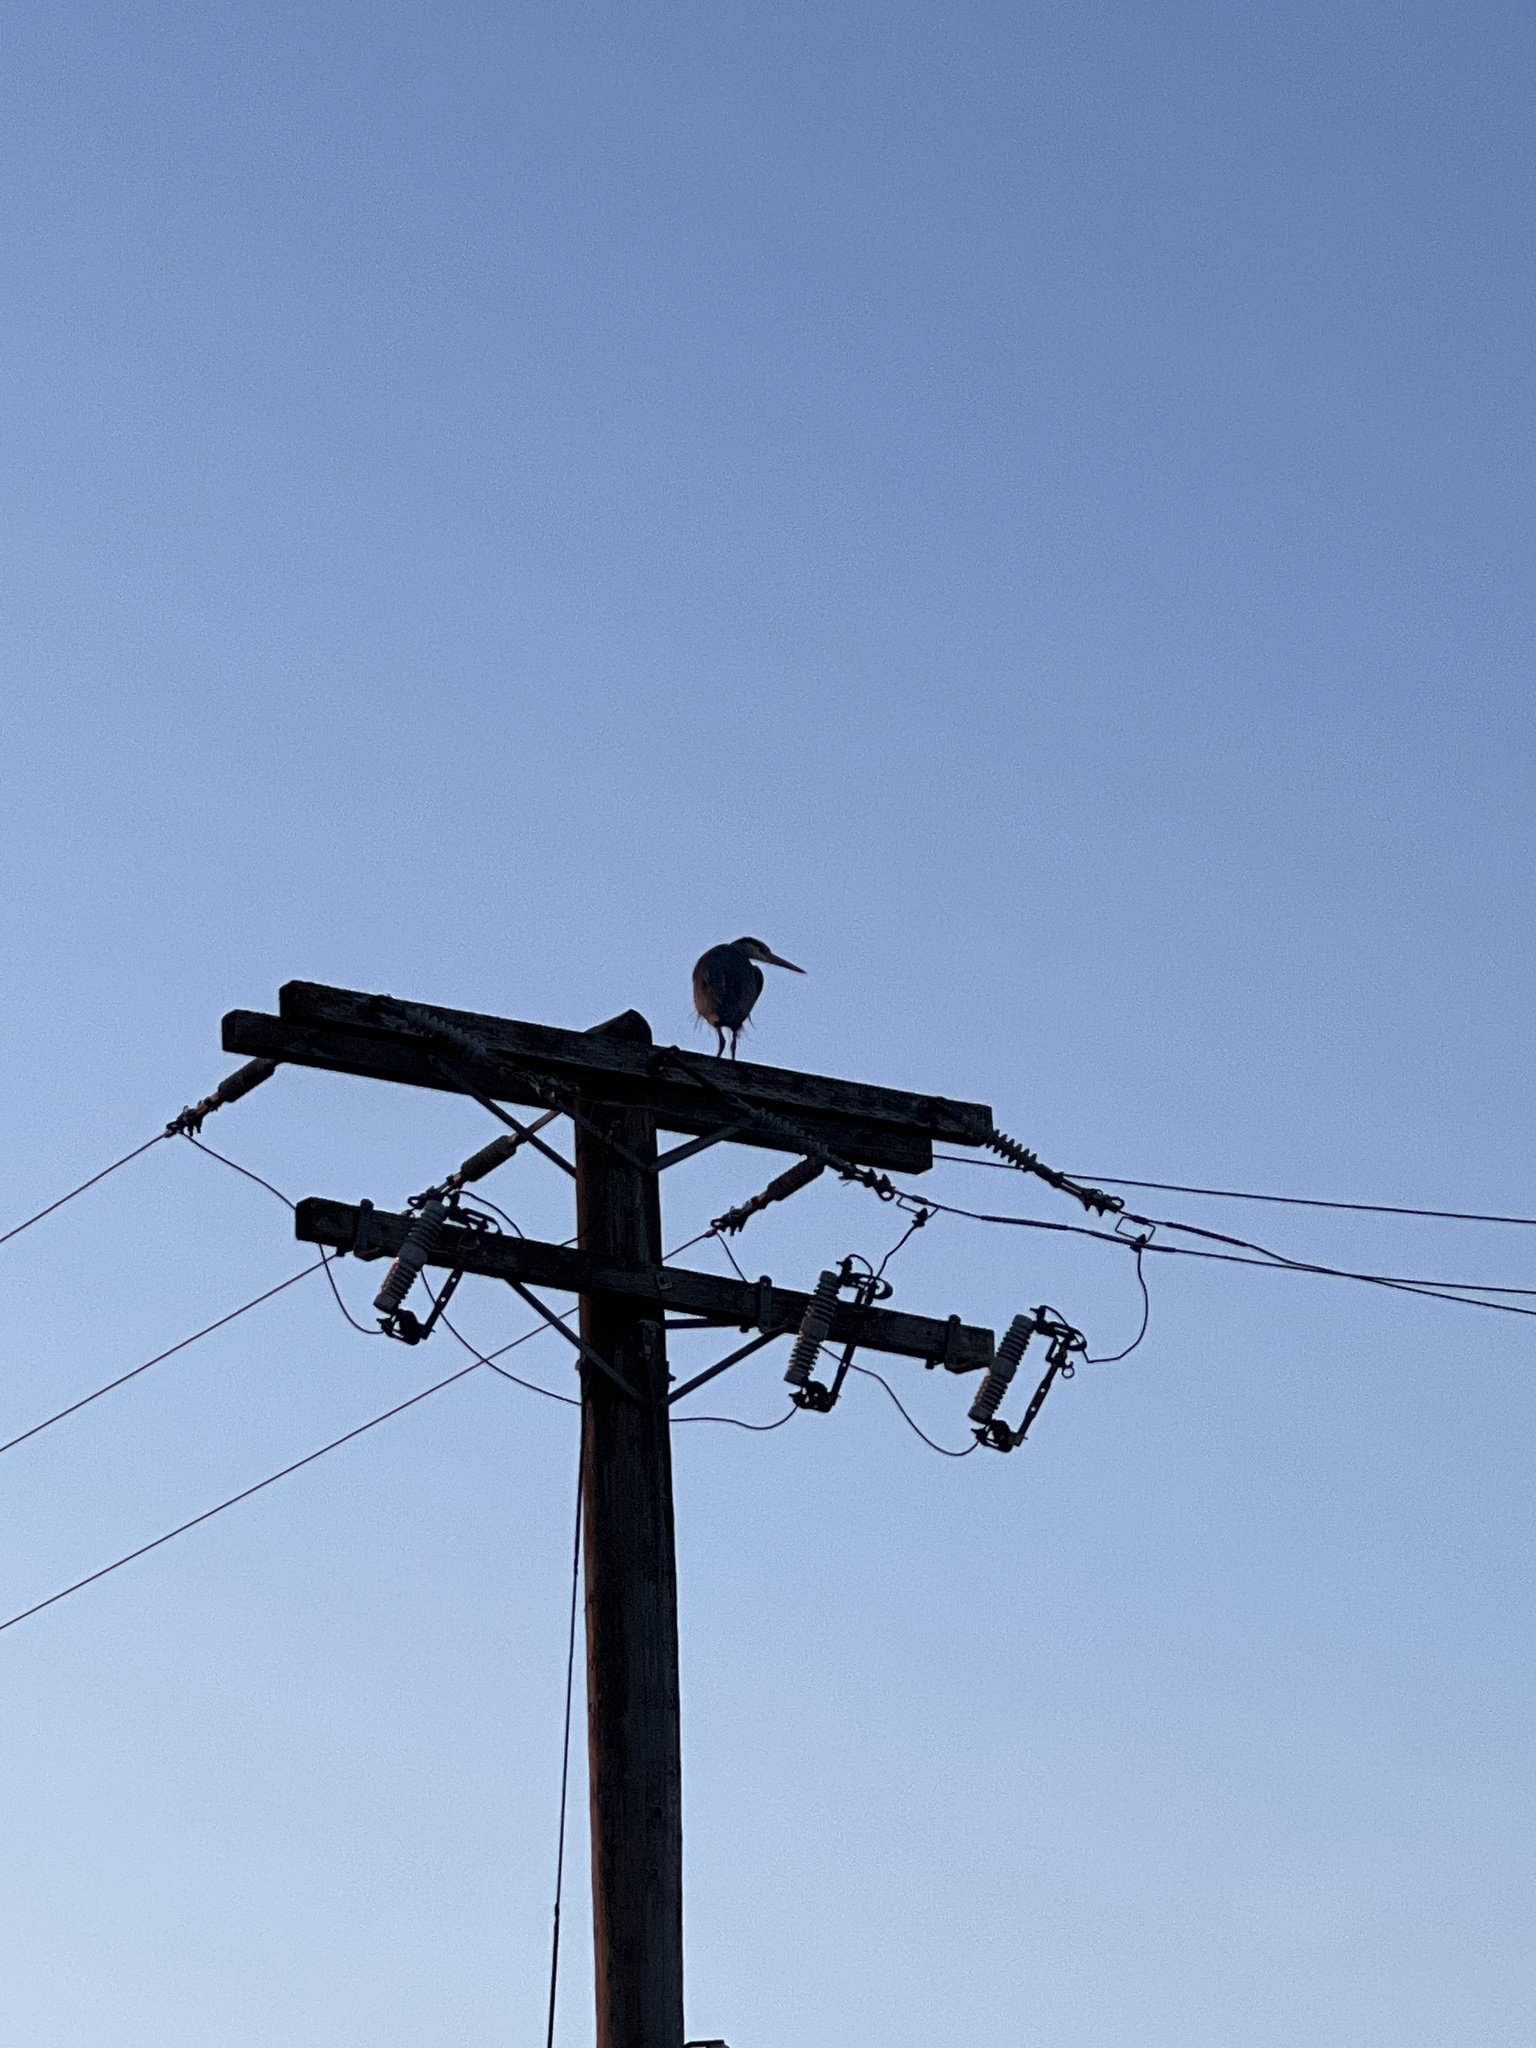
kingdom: Animalia
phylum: Chordata
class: Aves
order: Pelecaniformes
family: Ardeidae
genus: Ardea
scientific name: Ardea herodias
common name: Great blue heron
